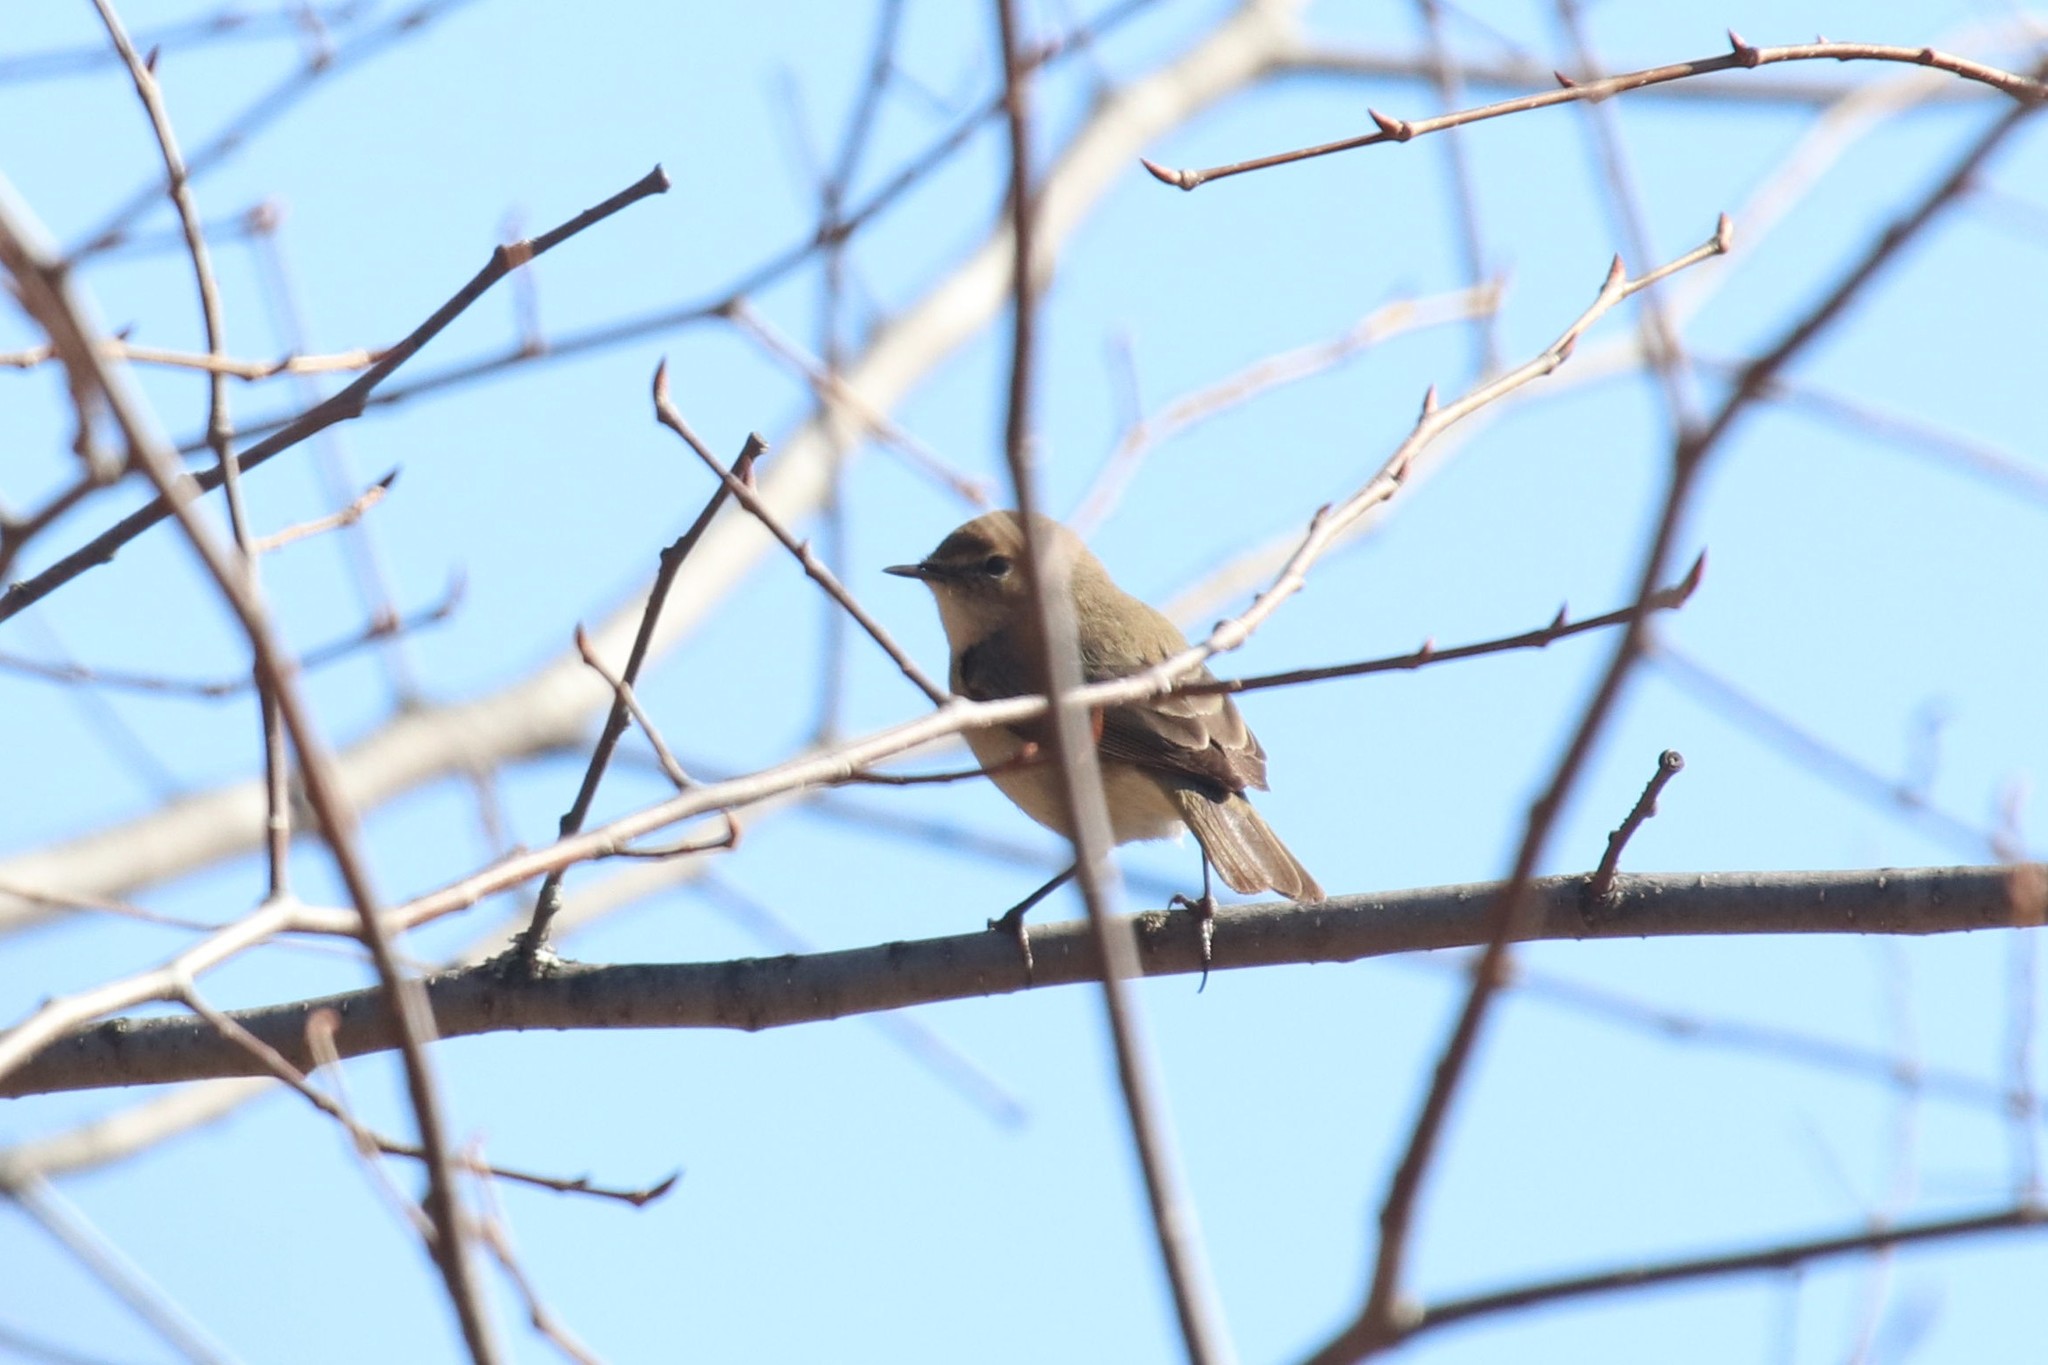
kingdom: Animalia
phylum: Chordata
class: Aves
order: Passeriformes
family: Phylloscopidae
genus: Phylloscopus
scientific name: Phylloscopus collybita
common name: Common chiffchaff
